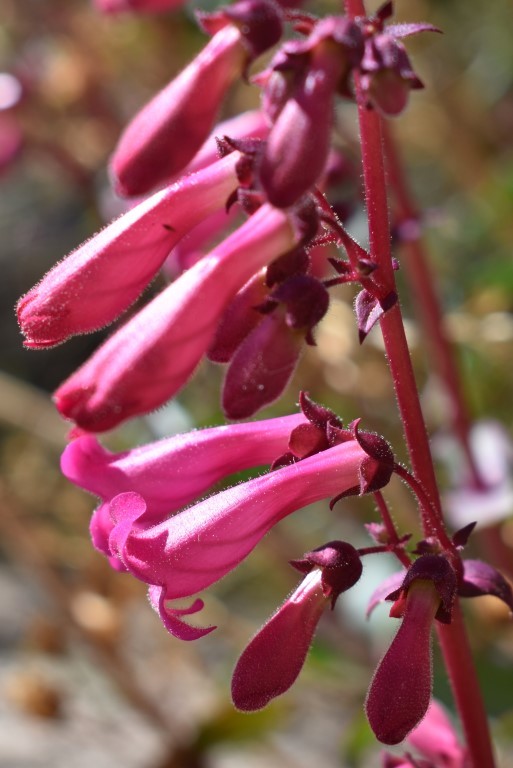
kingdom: Plantae
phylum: Tracheophyta
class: Magnoliopsida
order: Lamiales
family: Plantaginaceae
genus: Penstemon
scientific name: Penstemon clevelandii
